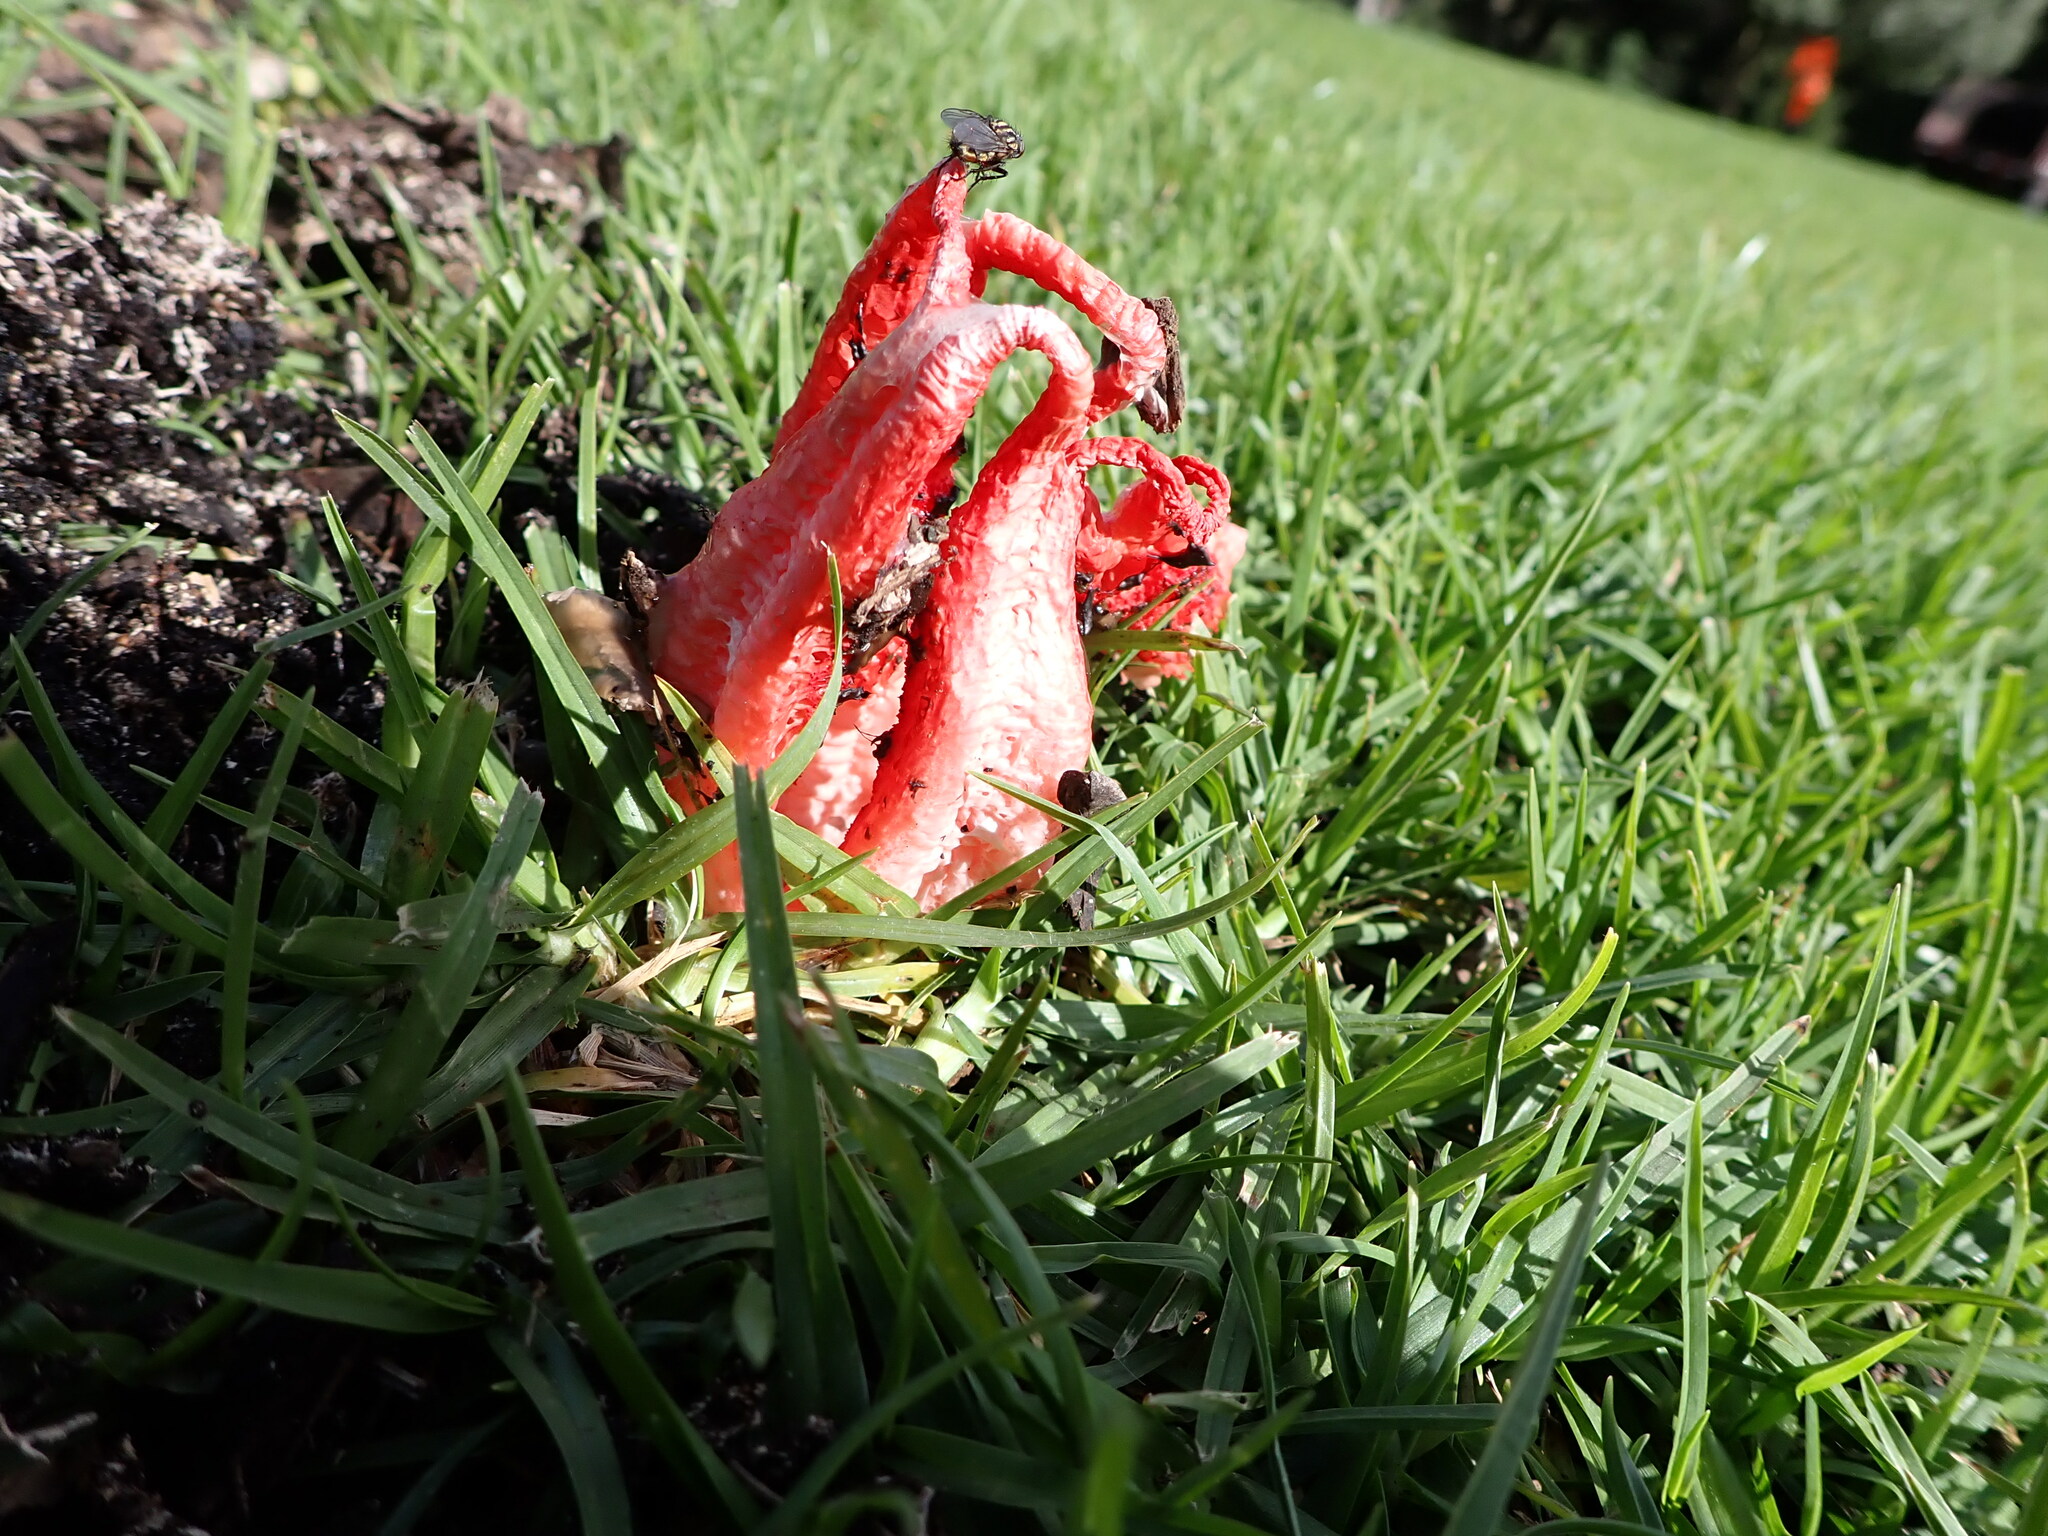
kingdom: Fungi
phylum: Basidiomycota
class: Agaricomycetes
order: Phallales
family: Phallaceae
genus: Clathrus
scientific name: Clathrus archeri
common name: Devil's fingers
